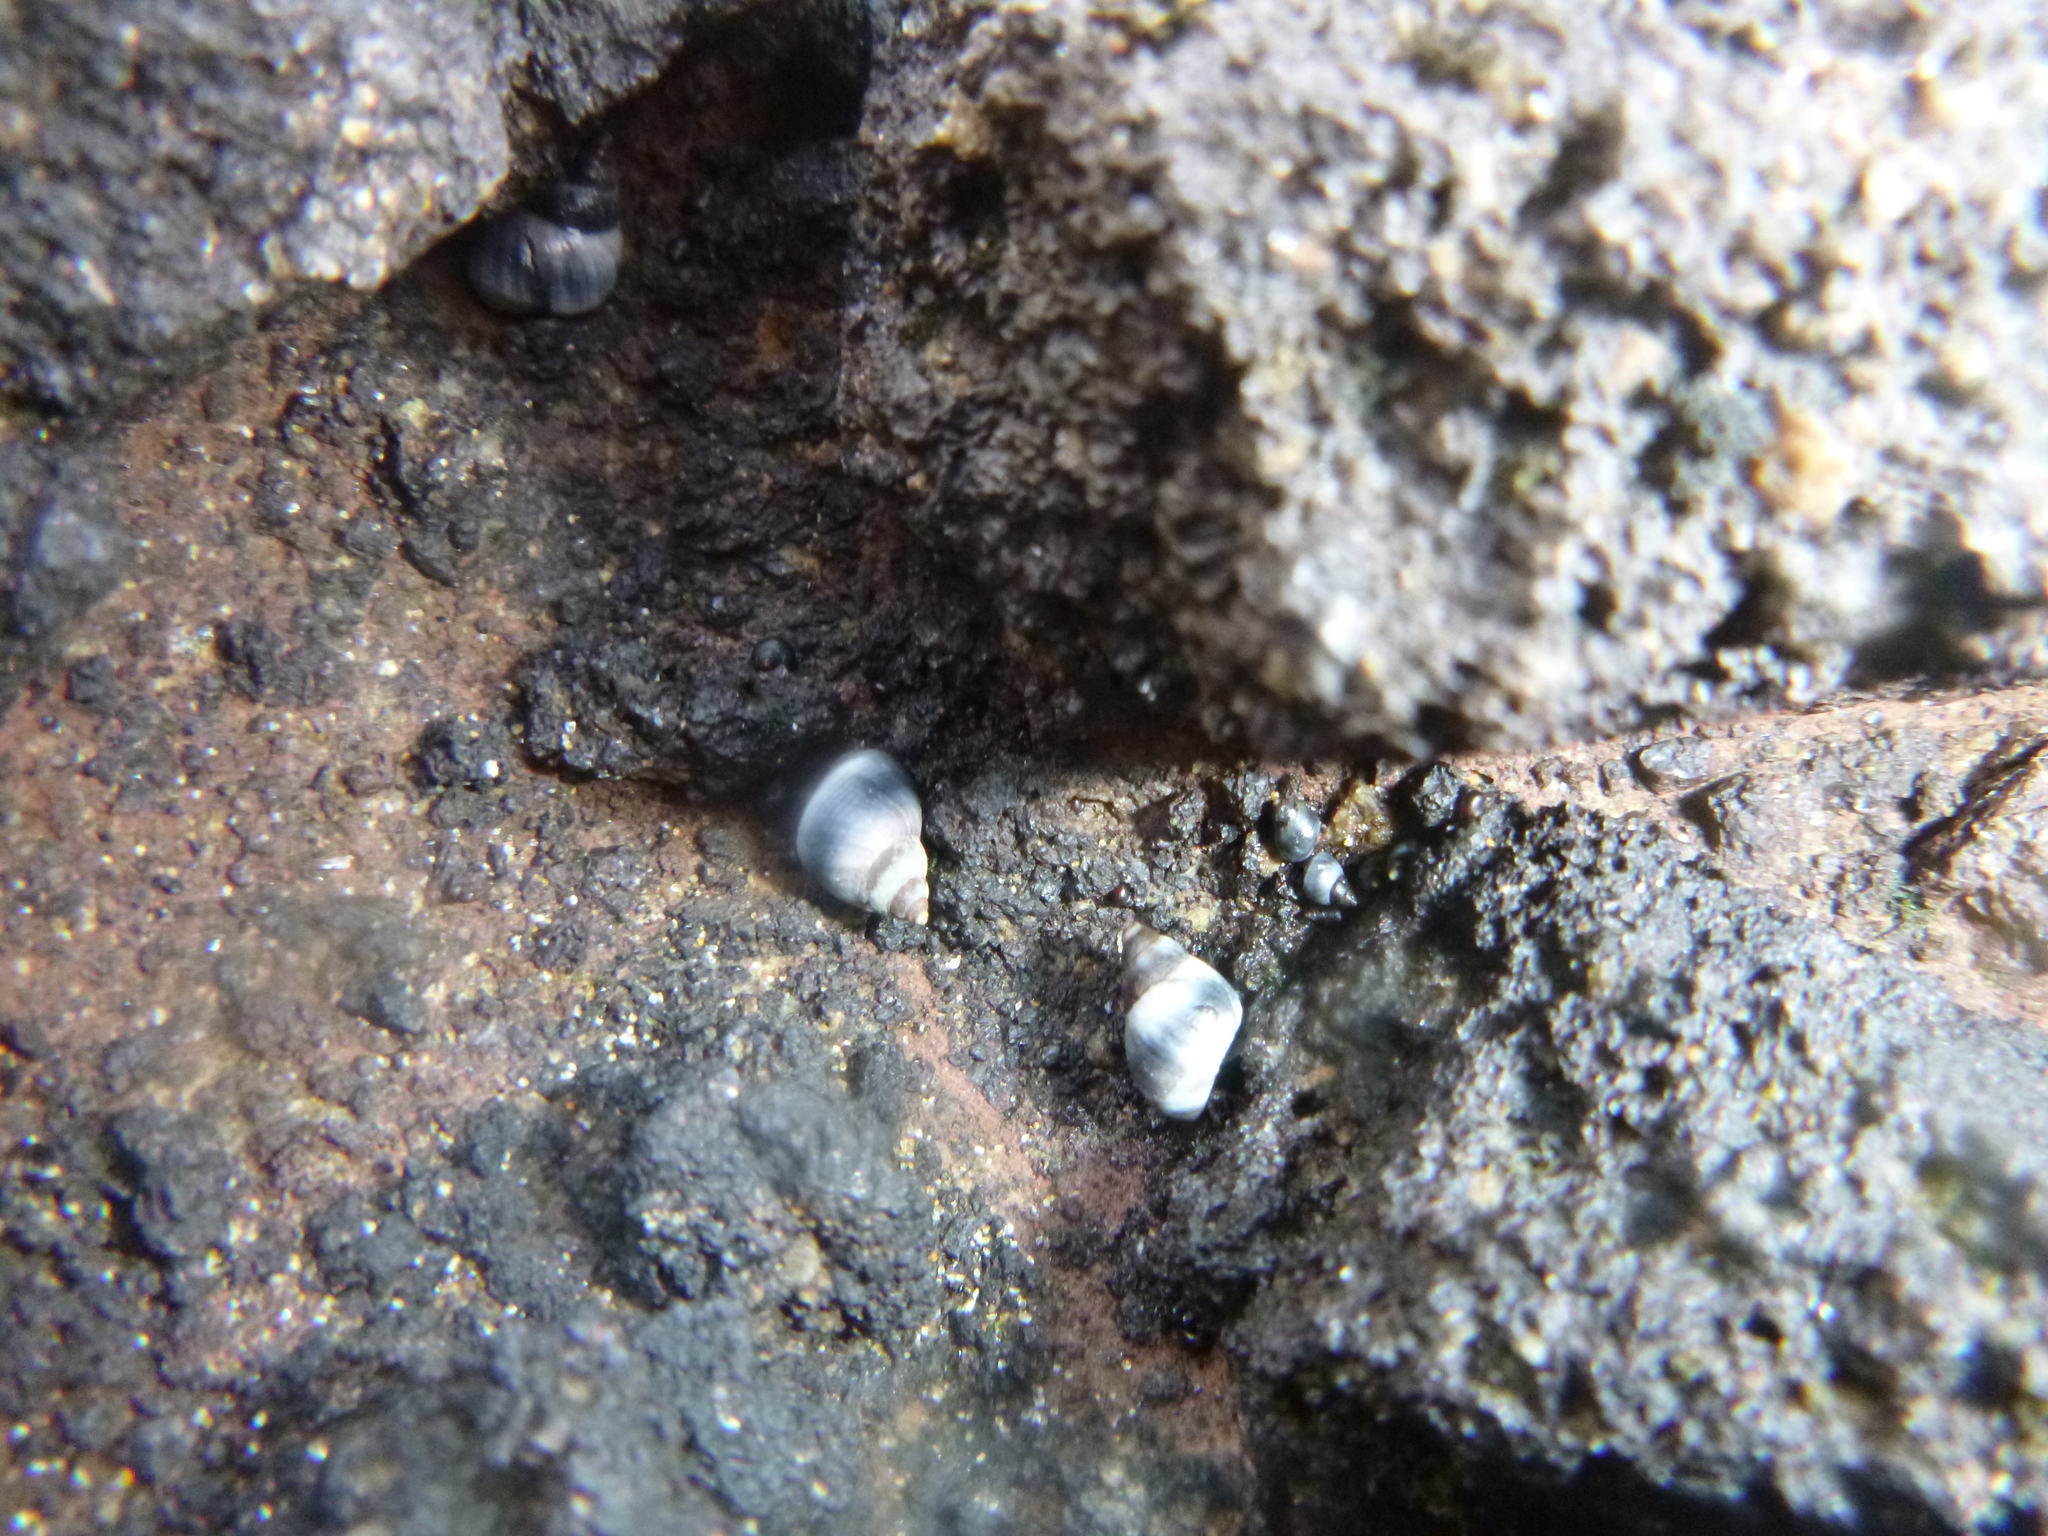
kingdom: Animalia
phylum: Mollusca
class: Gastropoda
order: Littorinimorpha
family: Littorinidae
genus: Austrolittorina
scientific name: Austrolittorina antipodum
